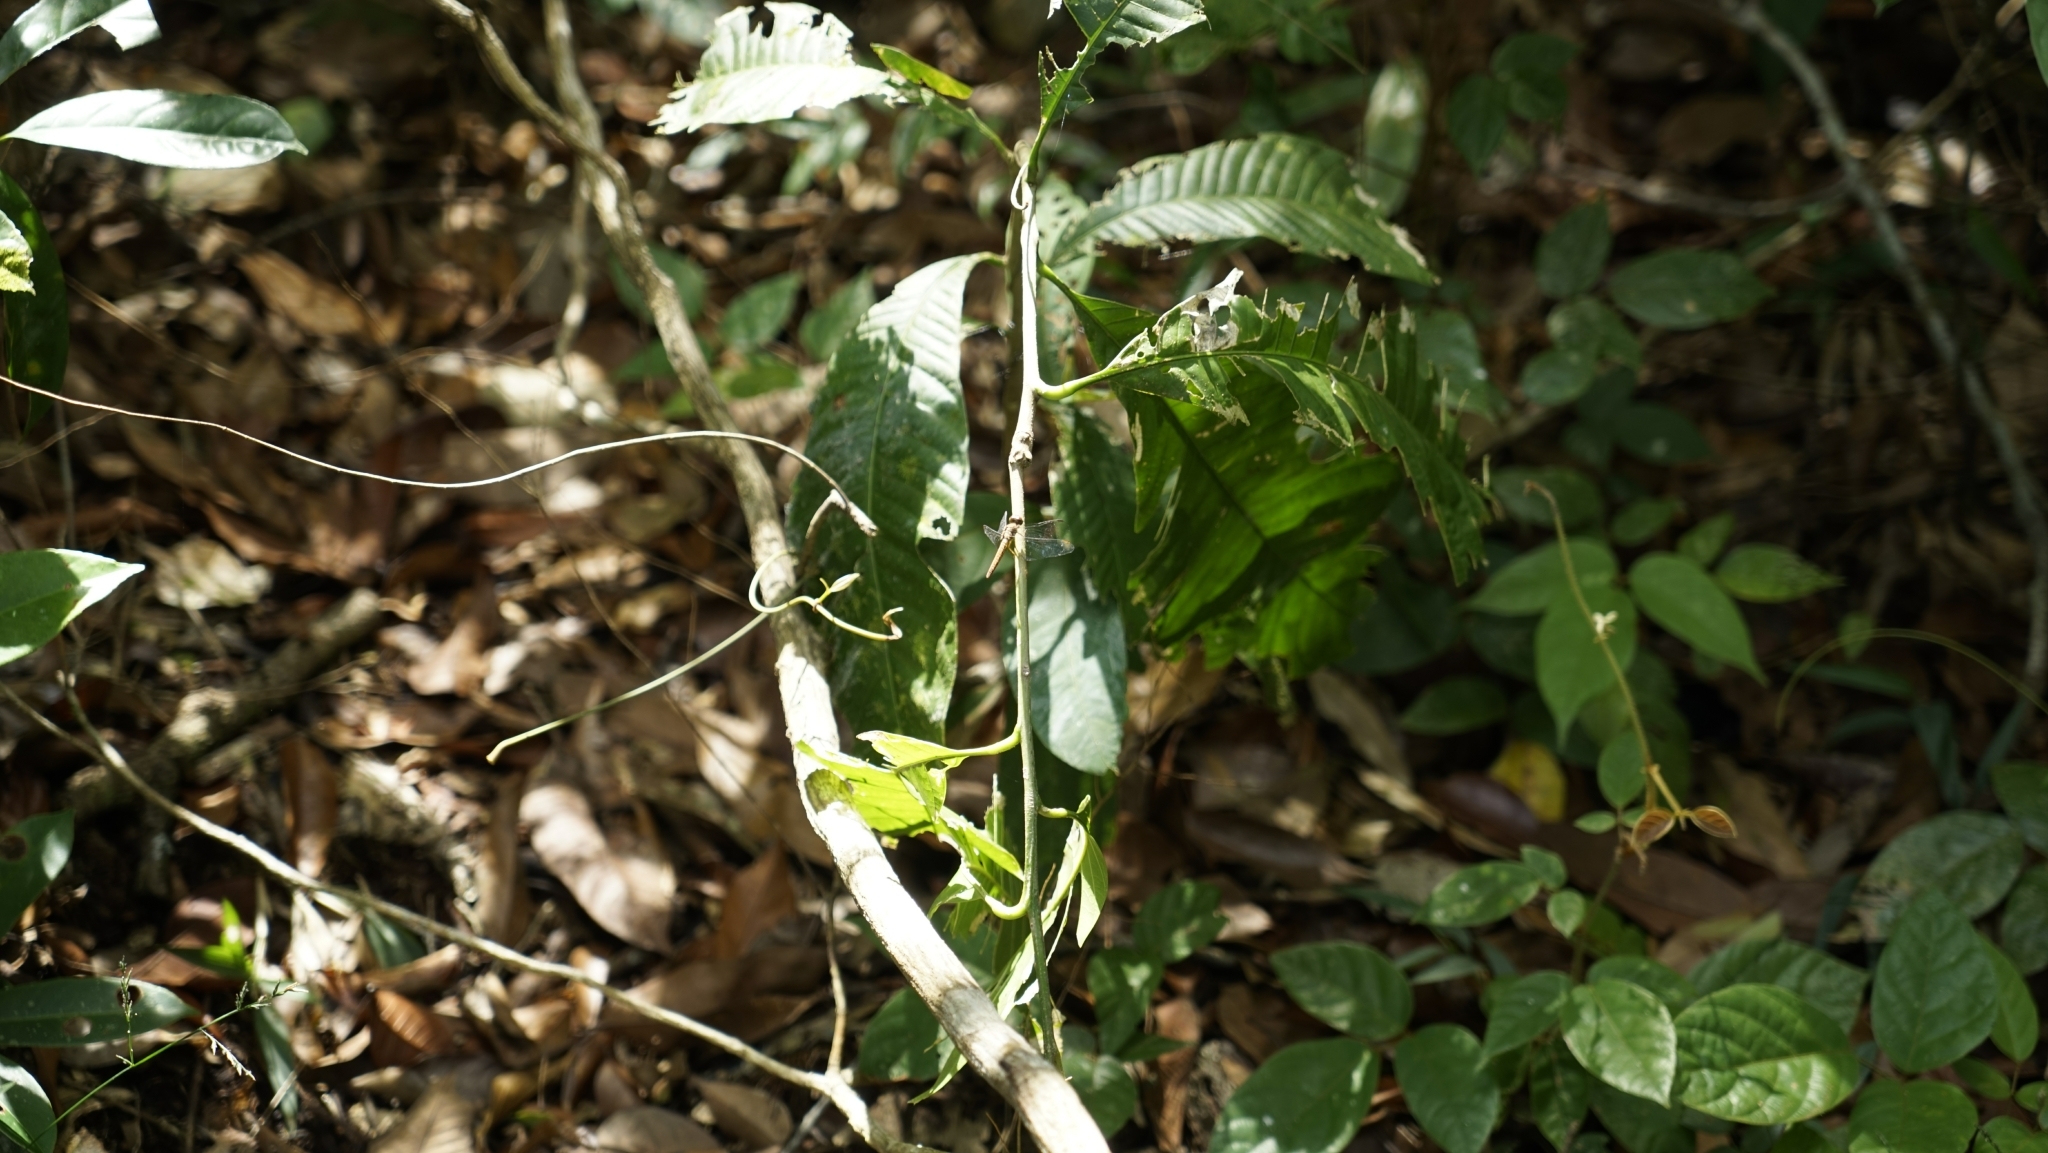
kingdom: Animalia
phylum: Arthropoda
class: Insecta
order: Odonata
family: Libellulidae
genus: Orthetrum
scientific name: Orthetrum testaceum
